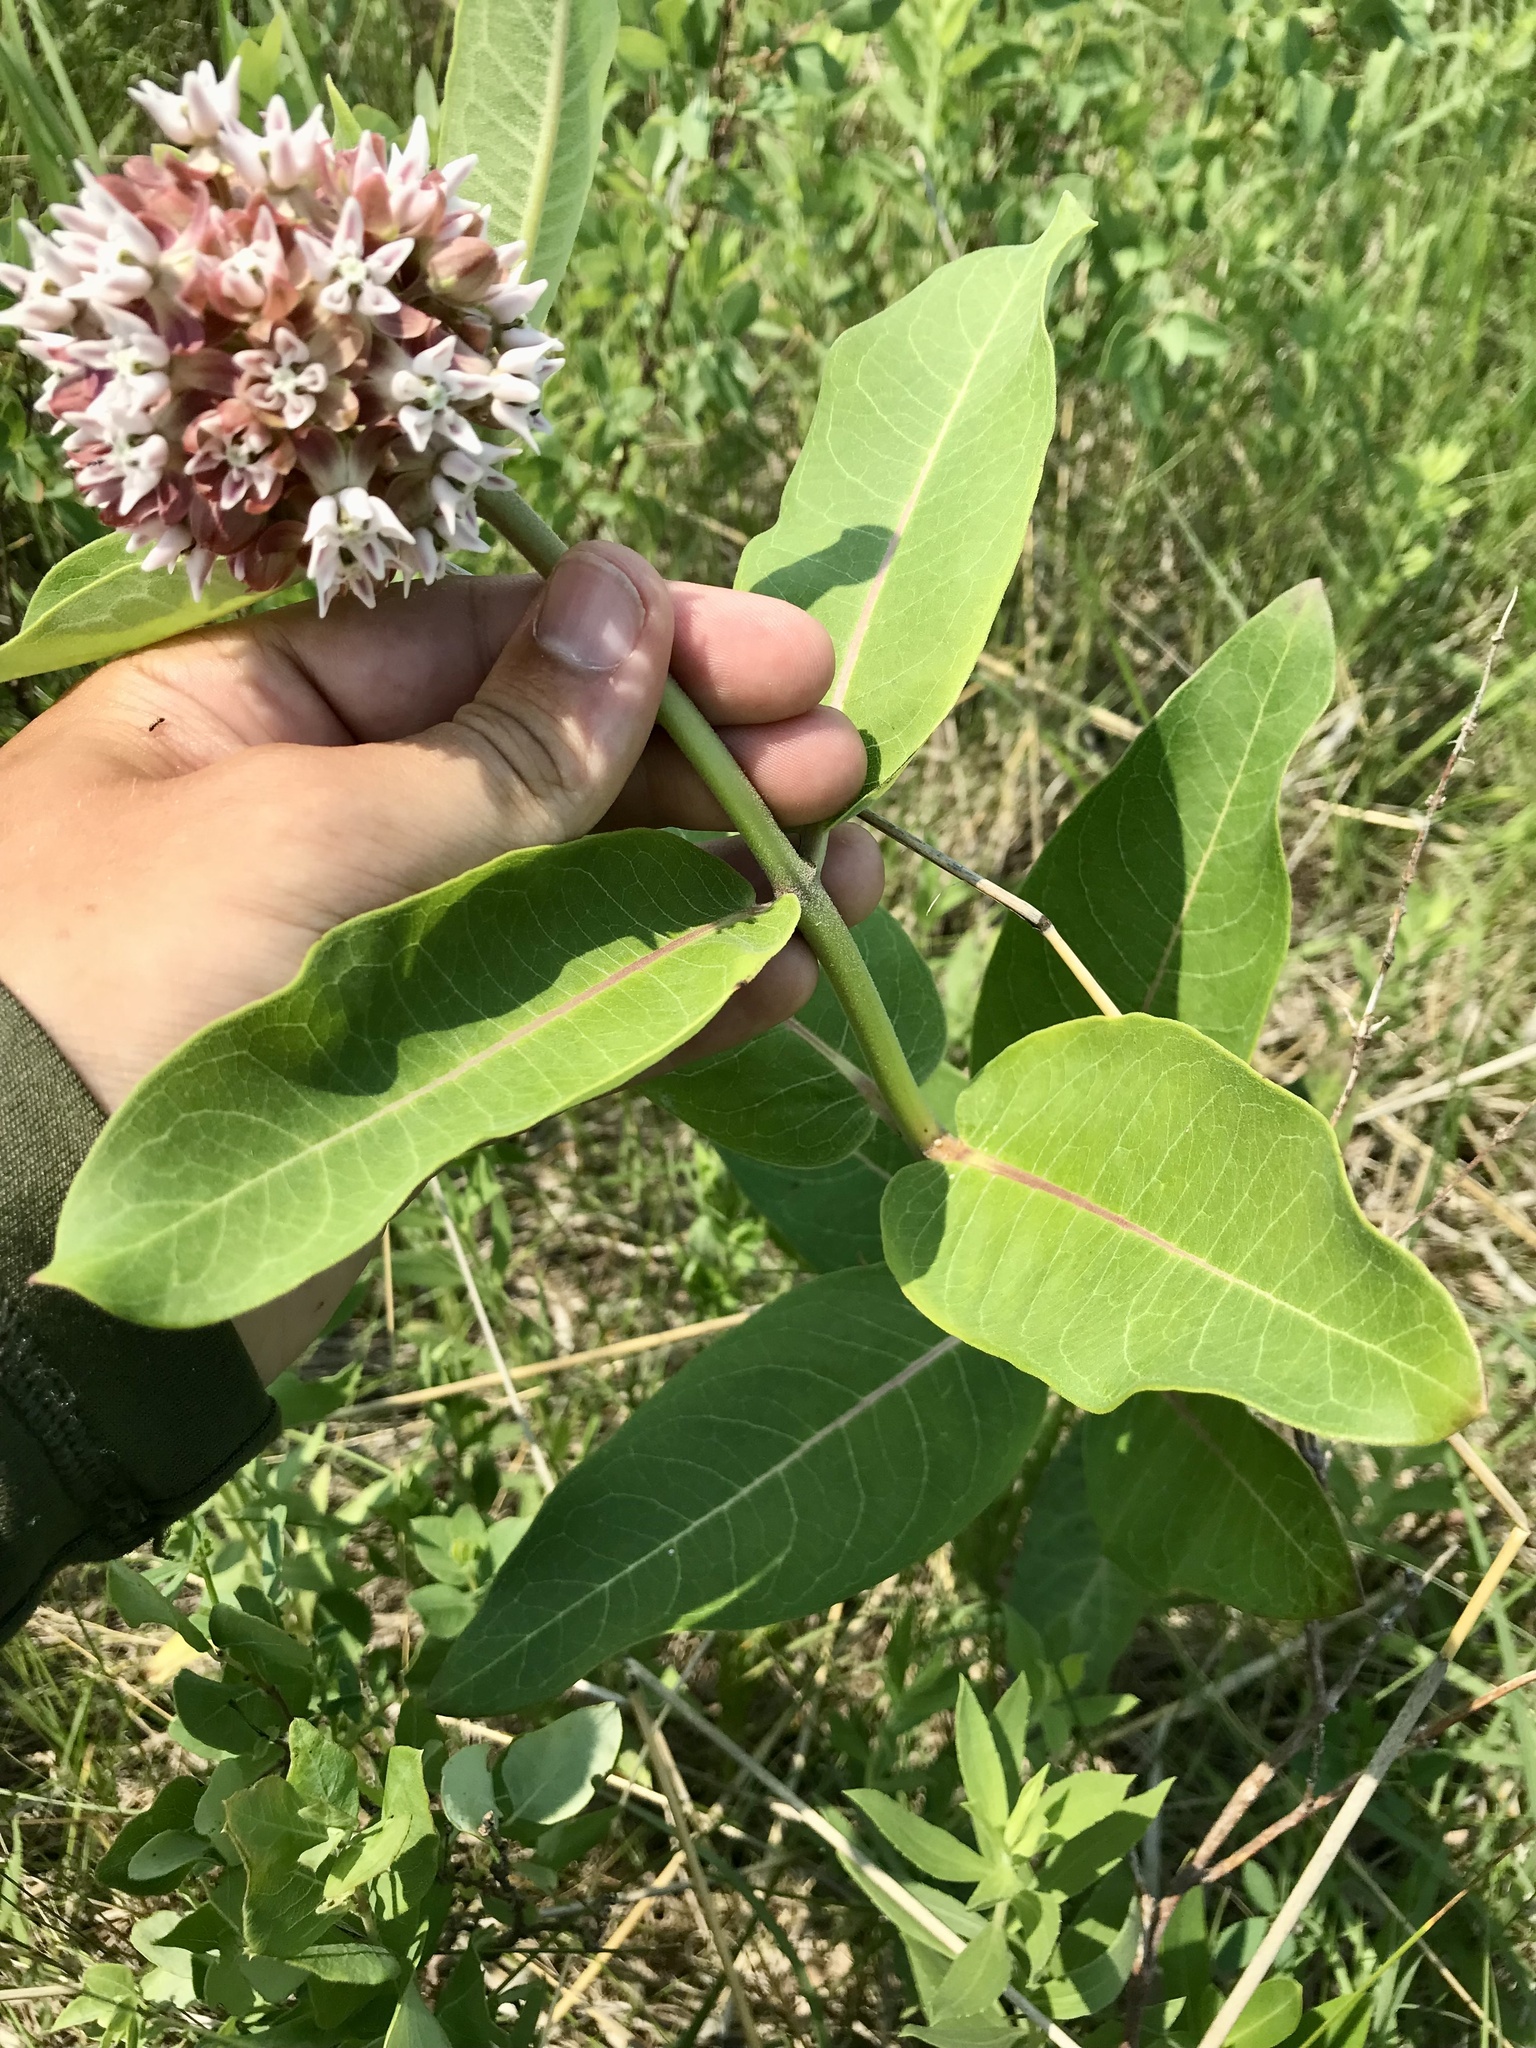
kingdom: Plantae
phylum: Tracheophyta
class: Magnoliopsida
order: Gentianales
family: Apocynaceae
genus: Asclepias
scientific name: Asclepias
